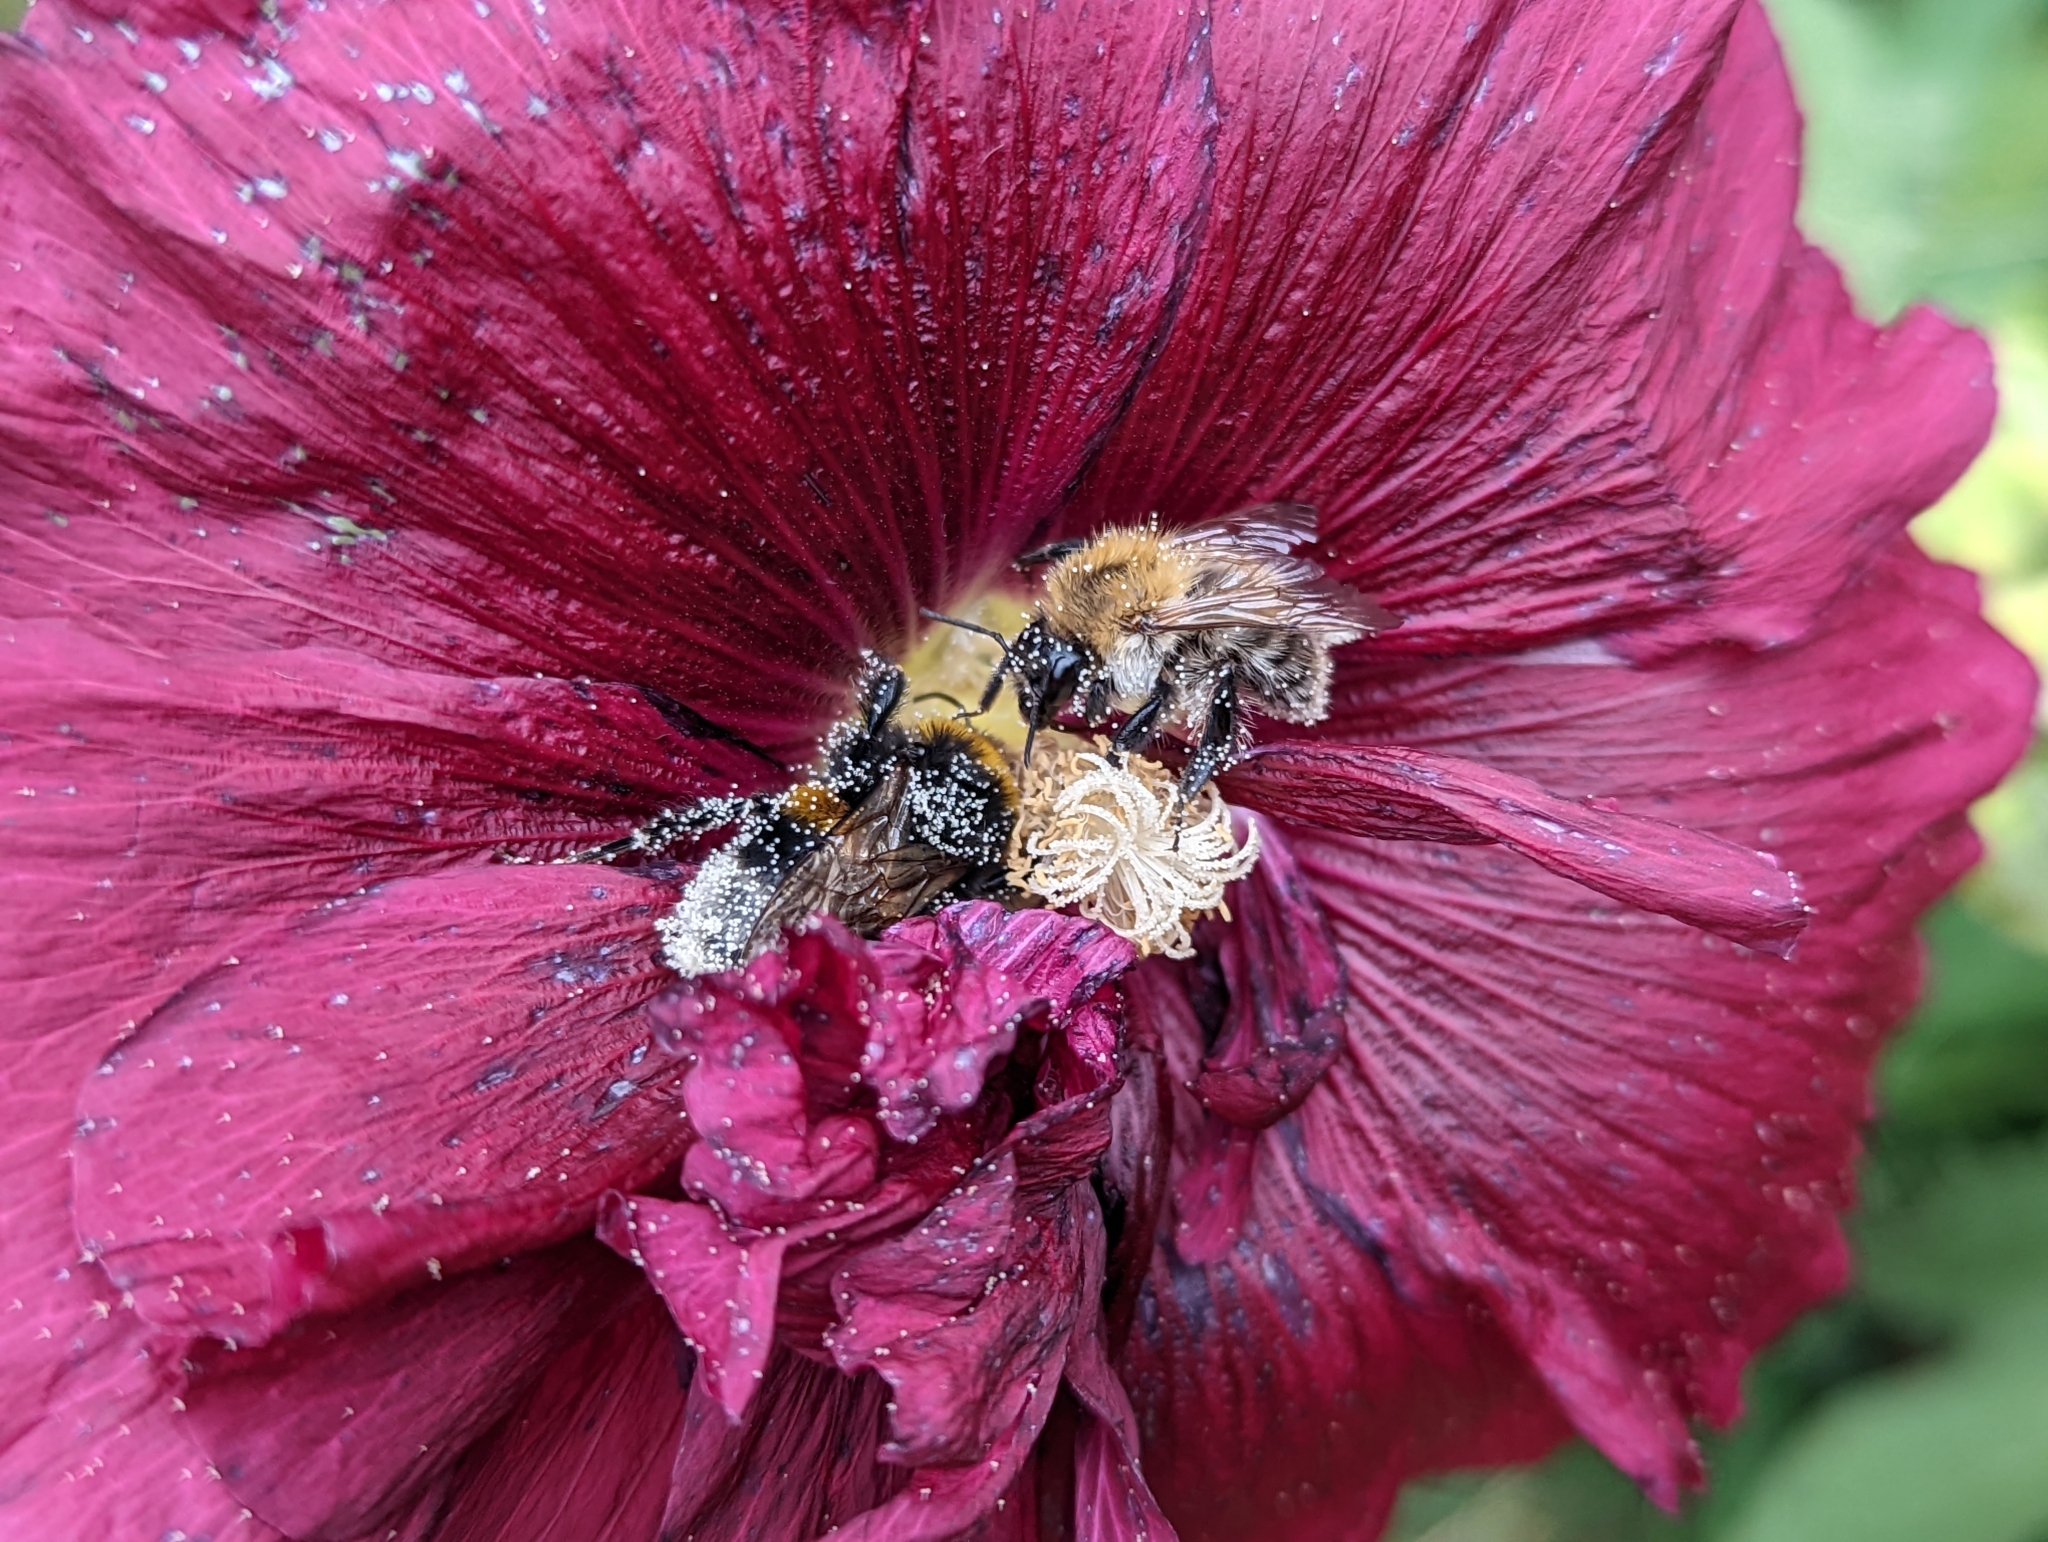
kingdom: Animalia
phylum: Arthropoda
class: Insecta
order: Hymenoptera
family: Apidae
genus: Bombus
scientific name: Bombus pratorum
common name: Early humble-bee
